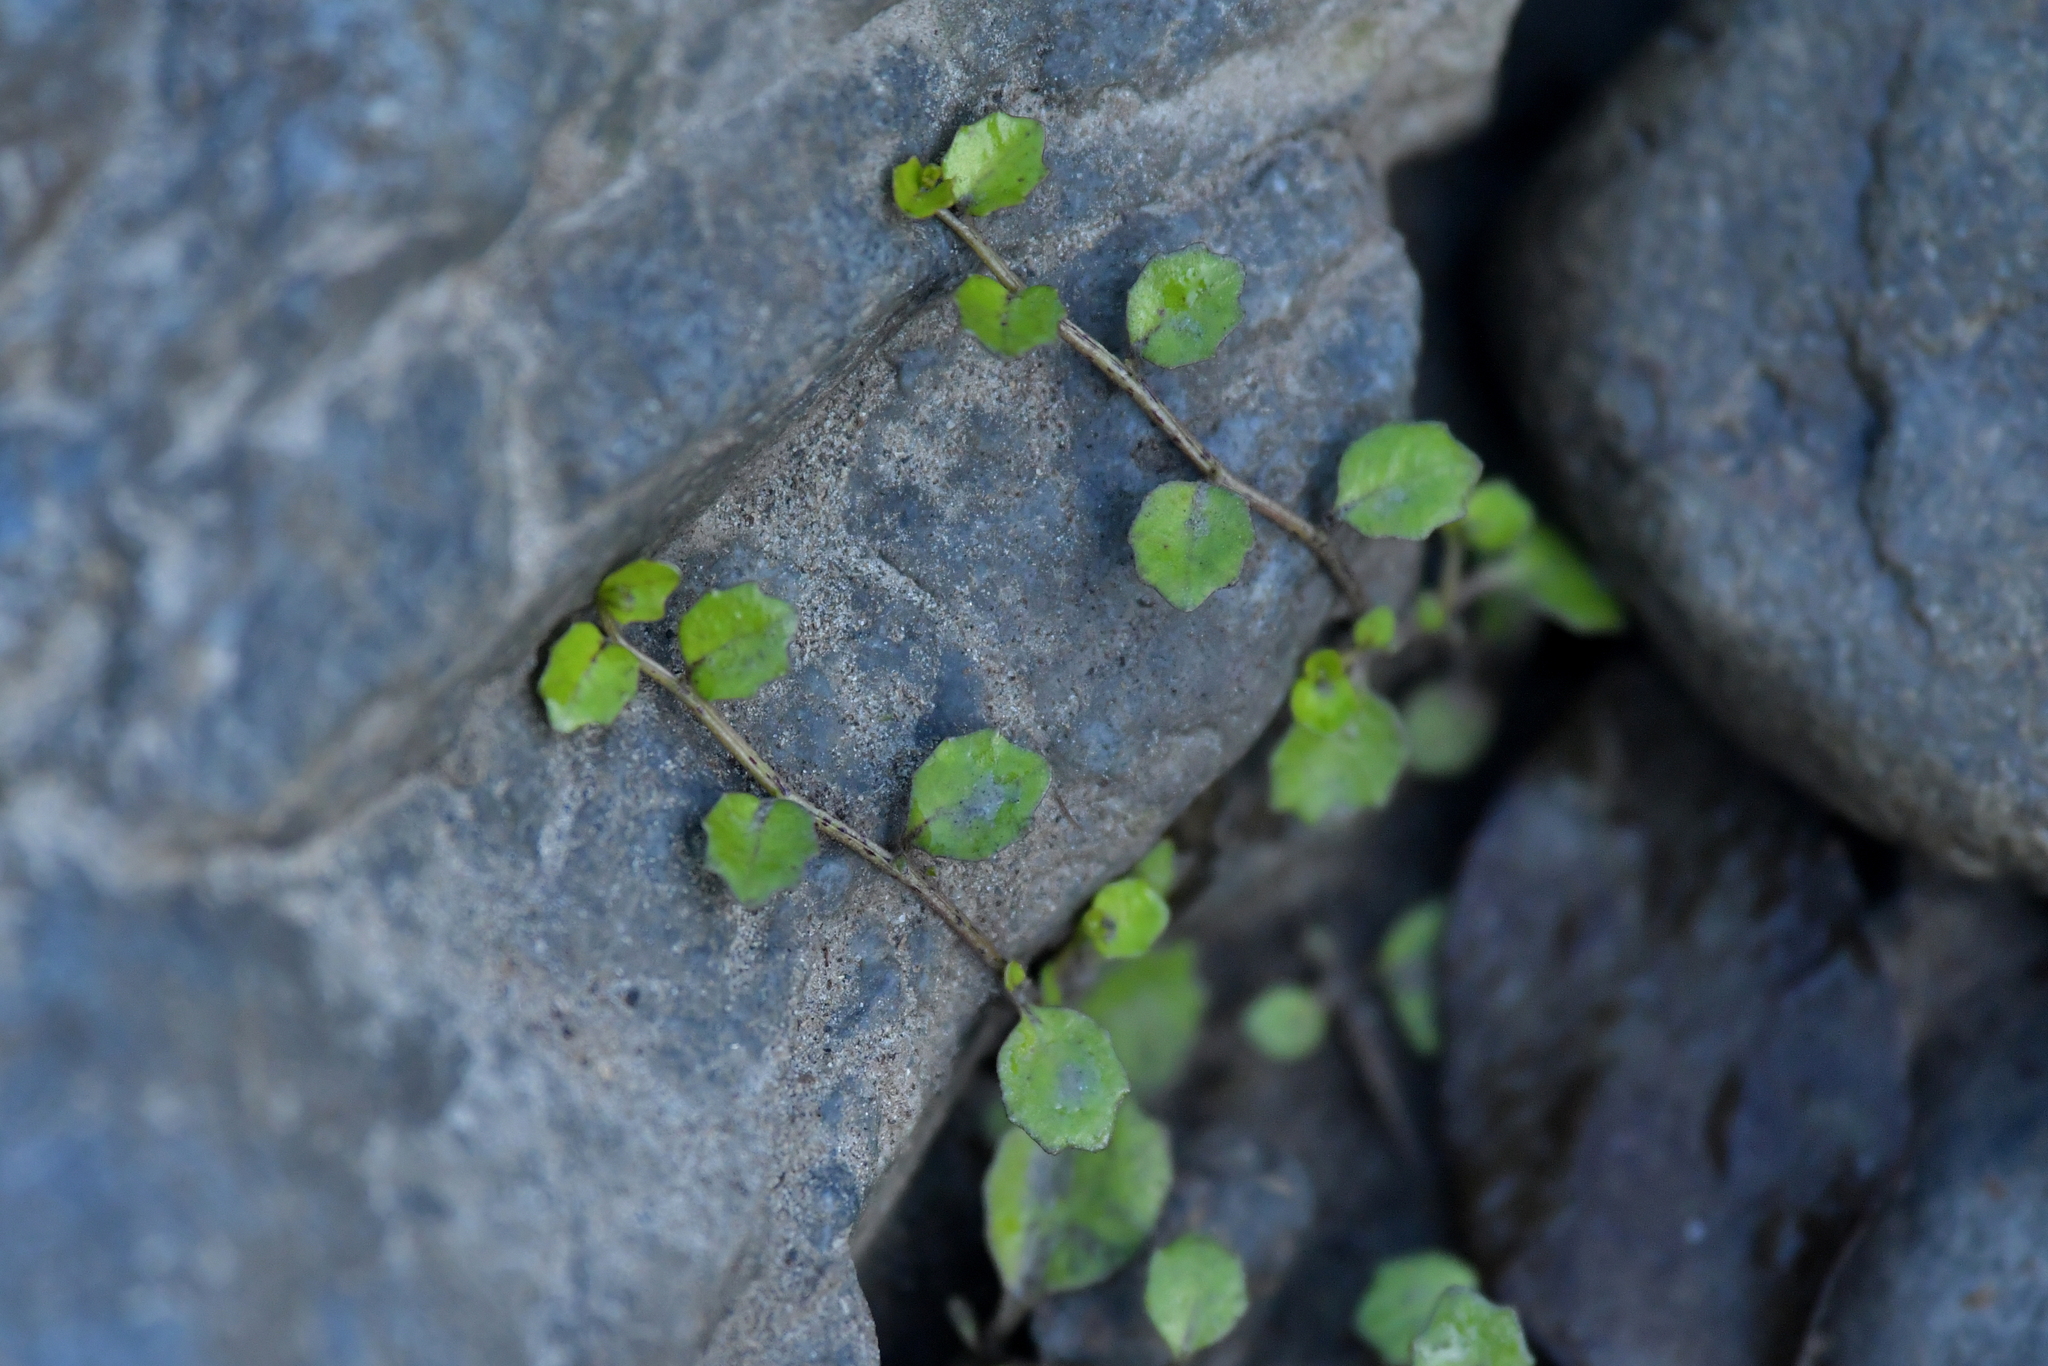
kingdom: Plantae
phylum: Tracheophyta
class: Magnoliopsida
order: Asterales
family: Campanulaceae
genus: Lobelia
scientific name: Lobelia angulata
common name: Lawn lobelia
